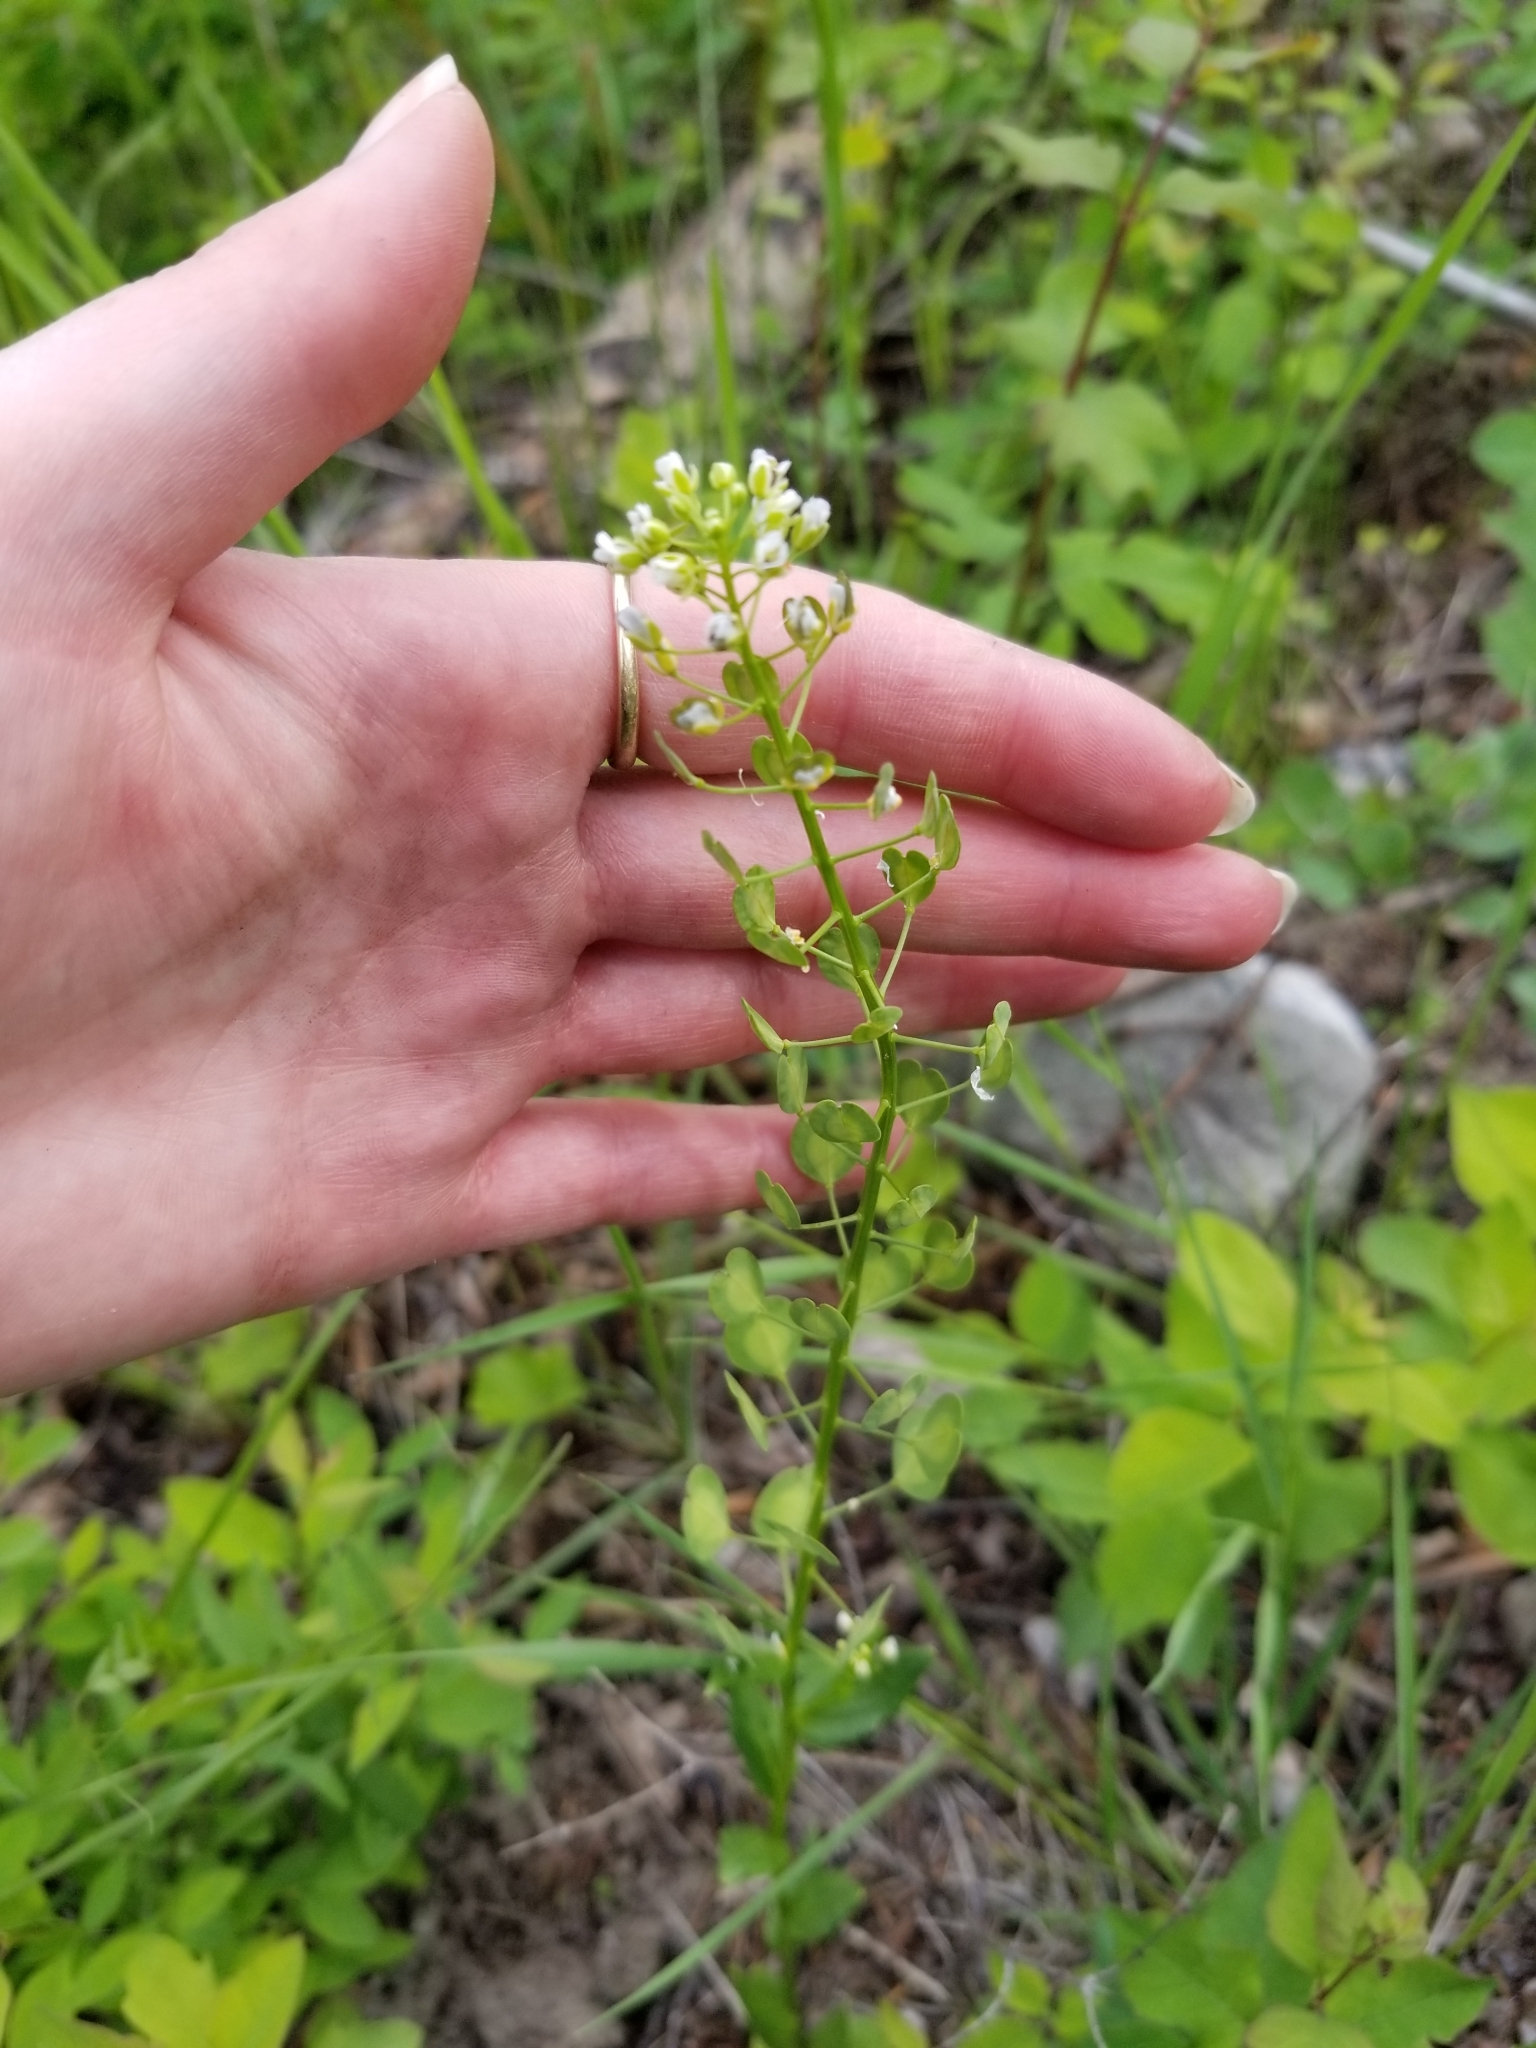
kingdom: Plantae
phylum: Tracheophyta
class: Magnoliopsida
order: Brassicales
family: Brassicaceae
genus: Thlaspi
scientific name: Thlaspi arvense
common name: Field pennycress
